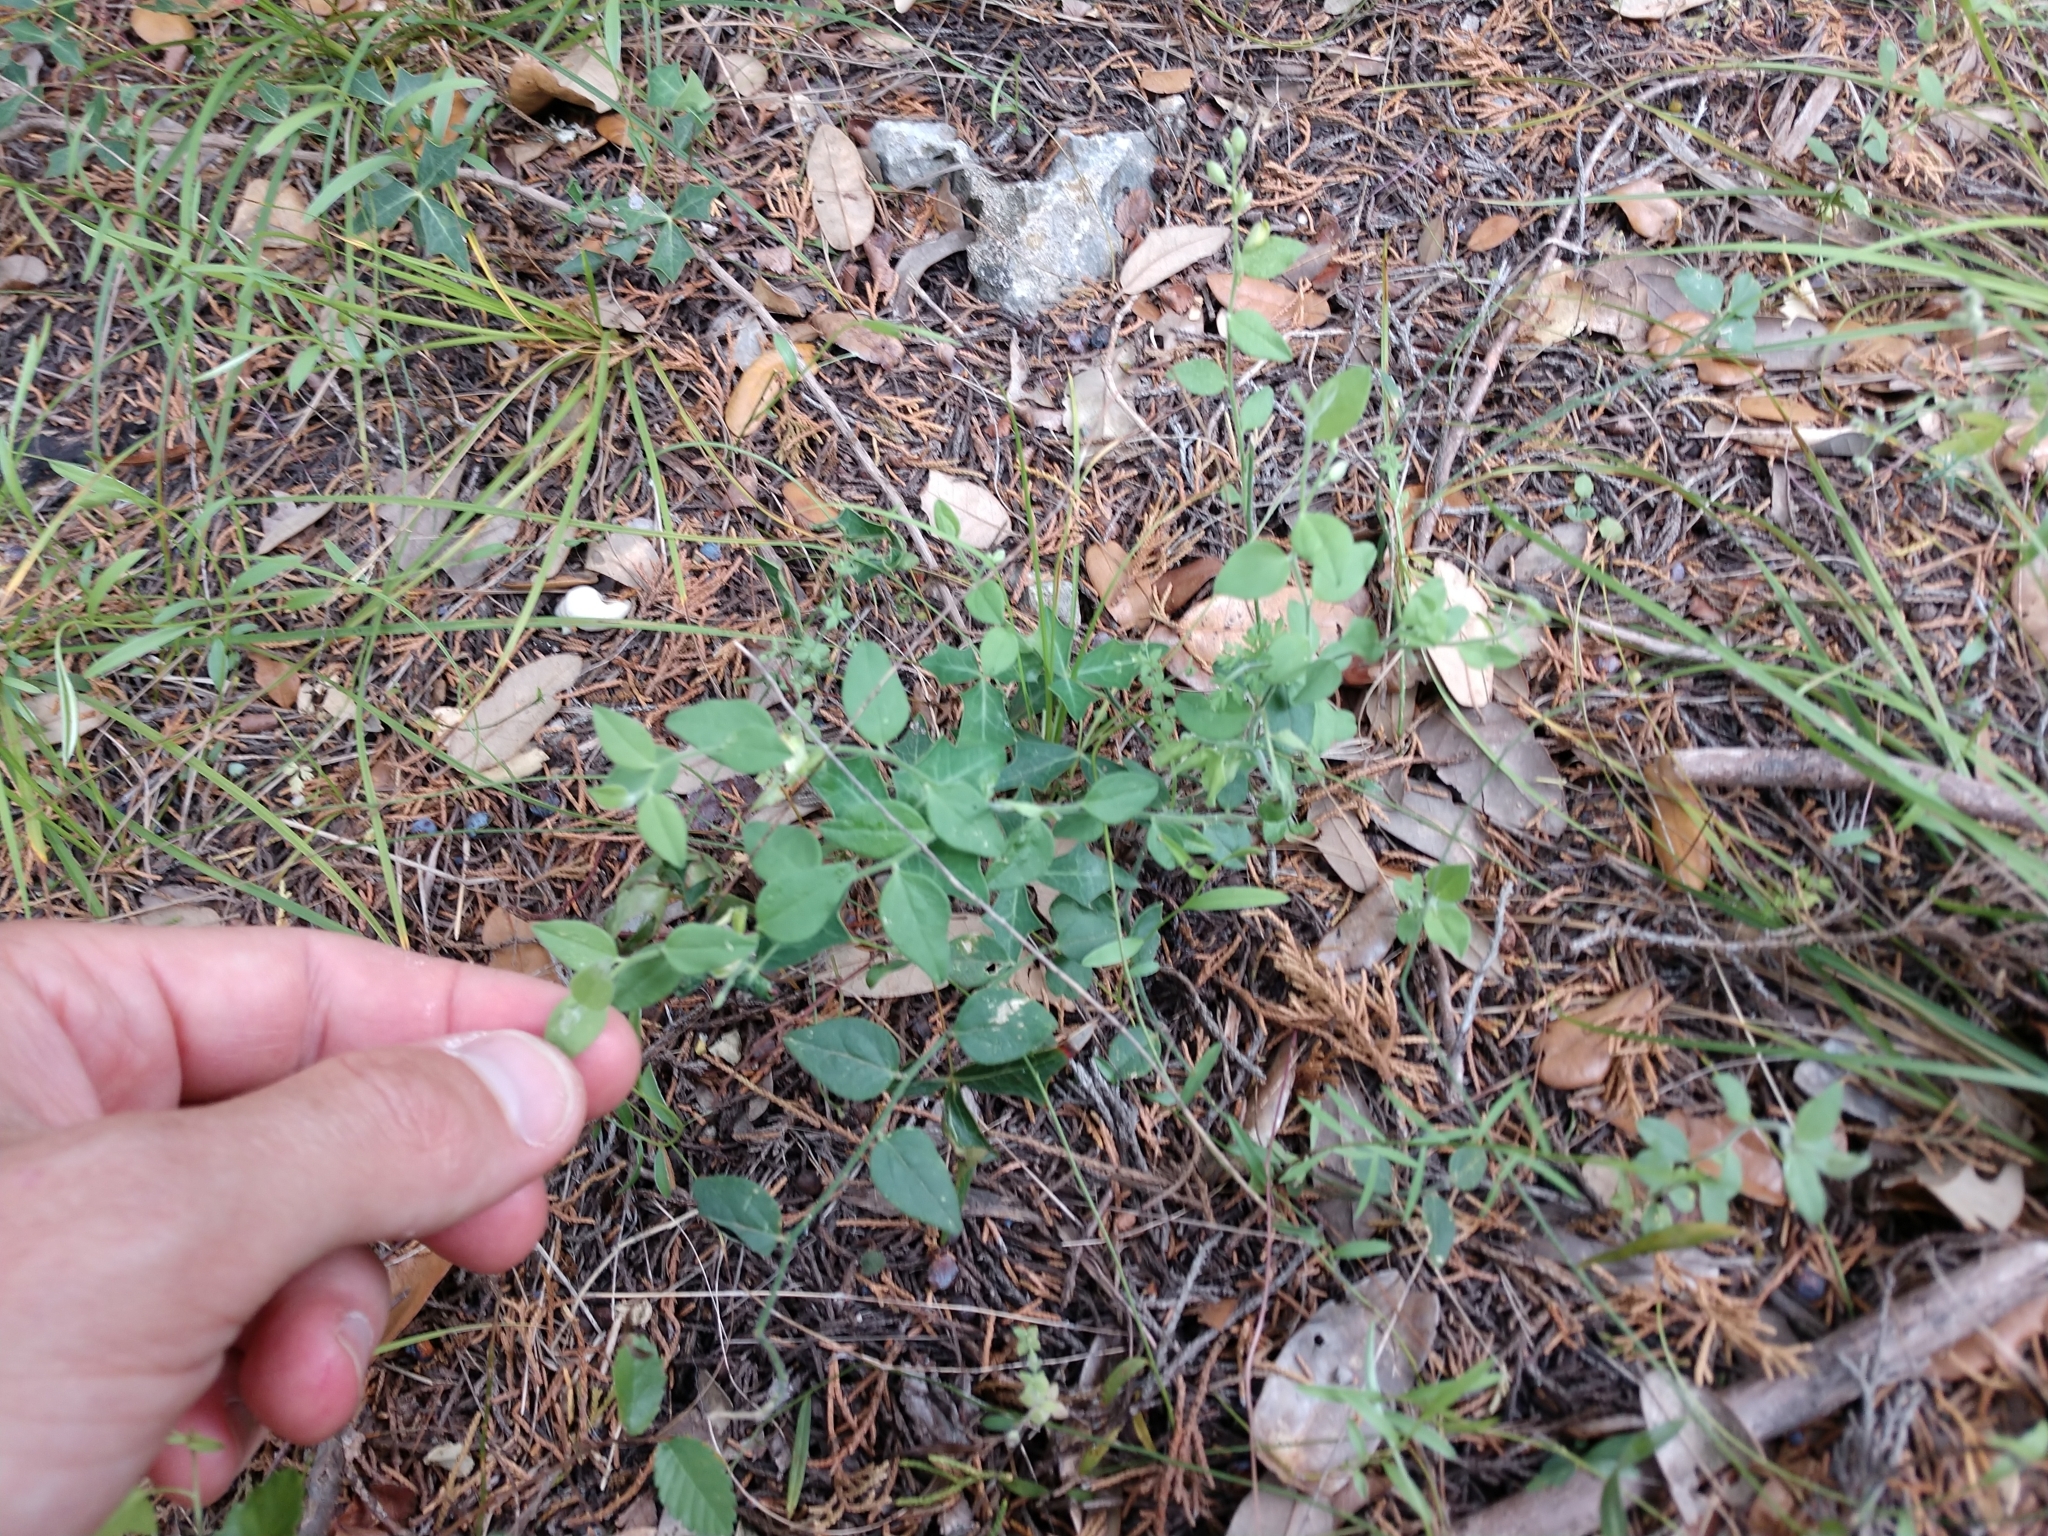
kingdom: Plantae
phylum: Tracheophyta
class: Magnoliopsida
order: Fabales
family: Polygalaceae
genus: Hebecarpa
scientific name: Hebecarpa ovatifolia
